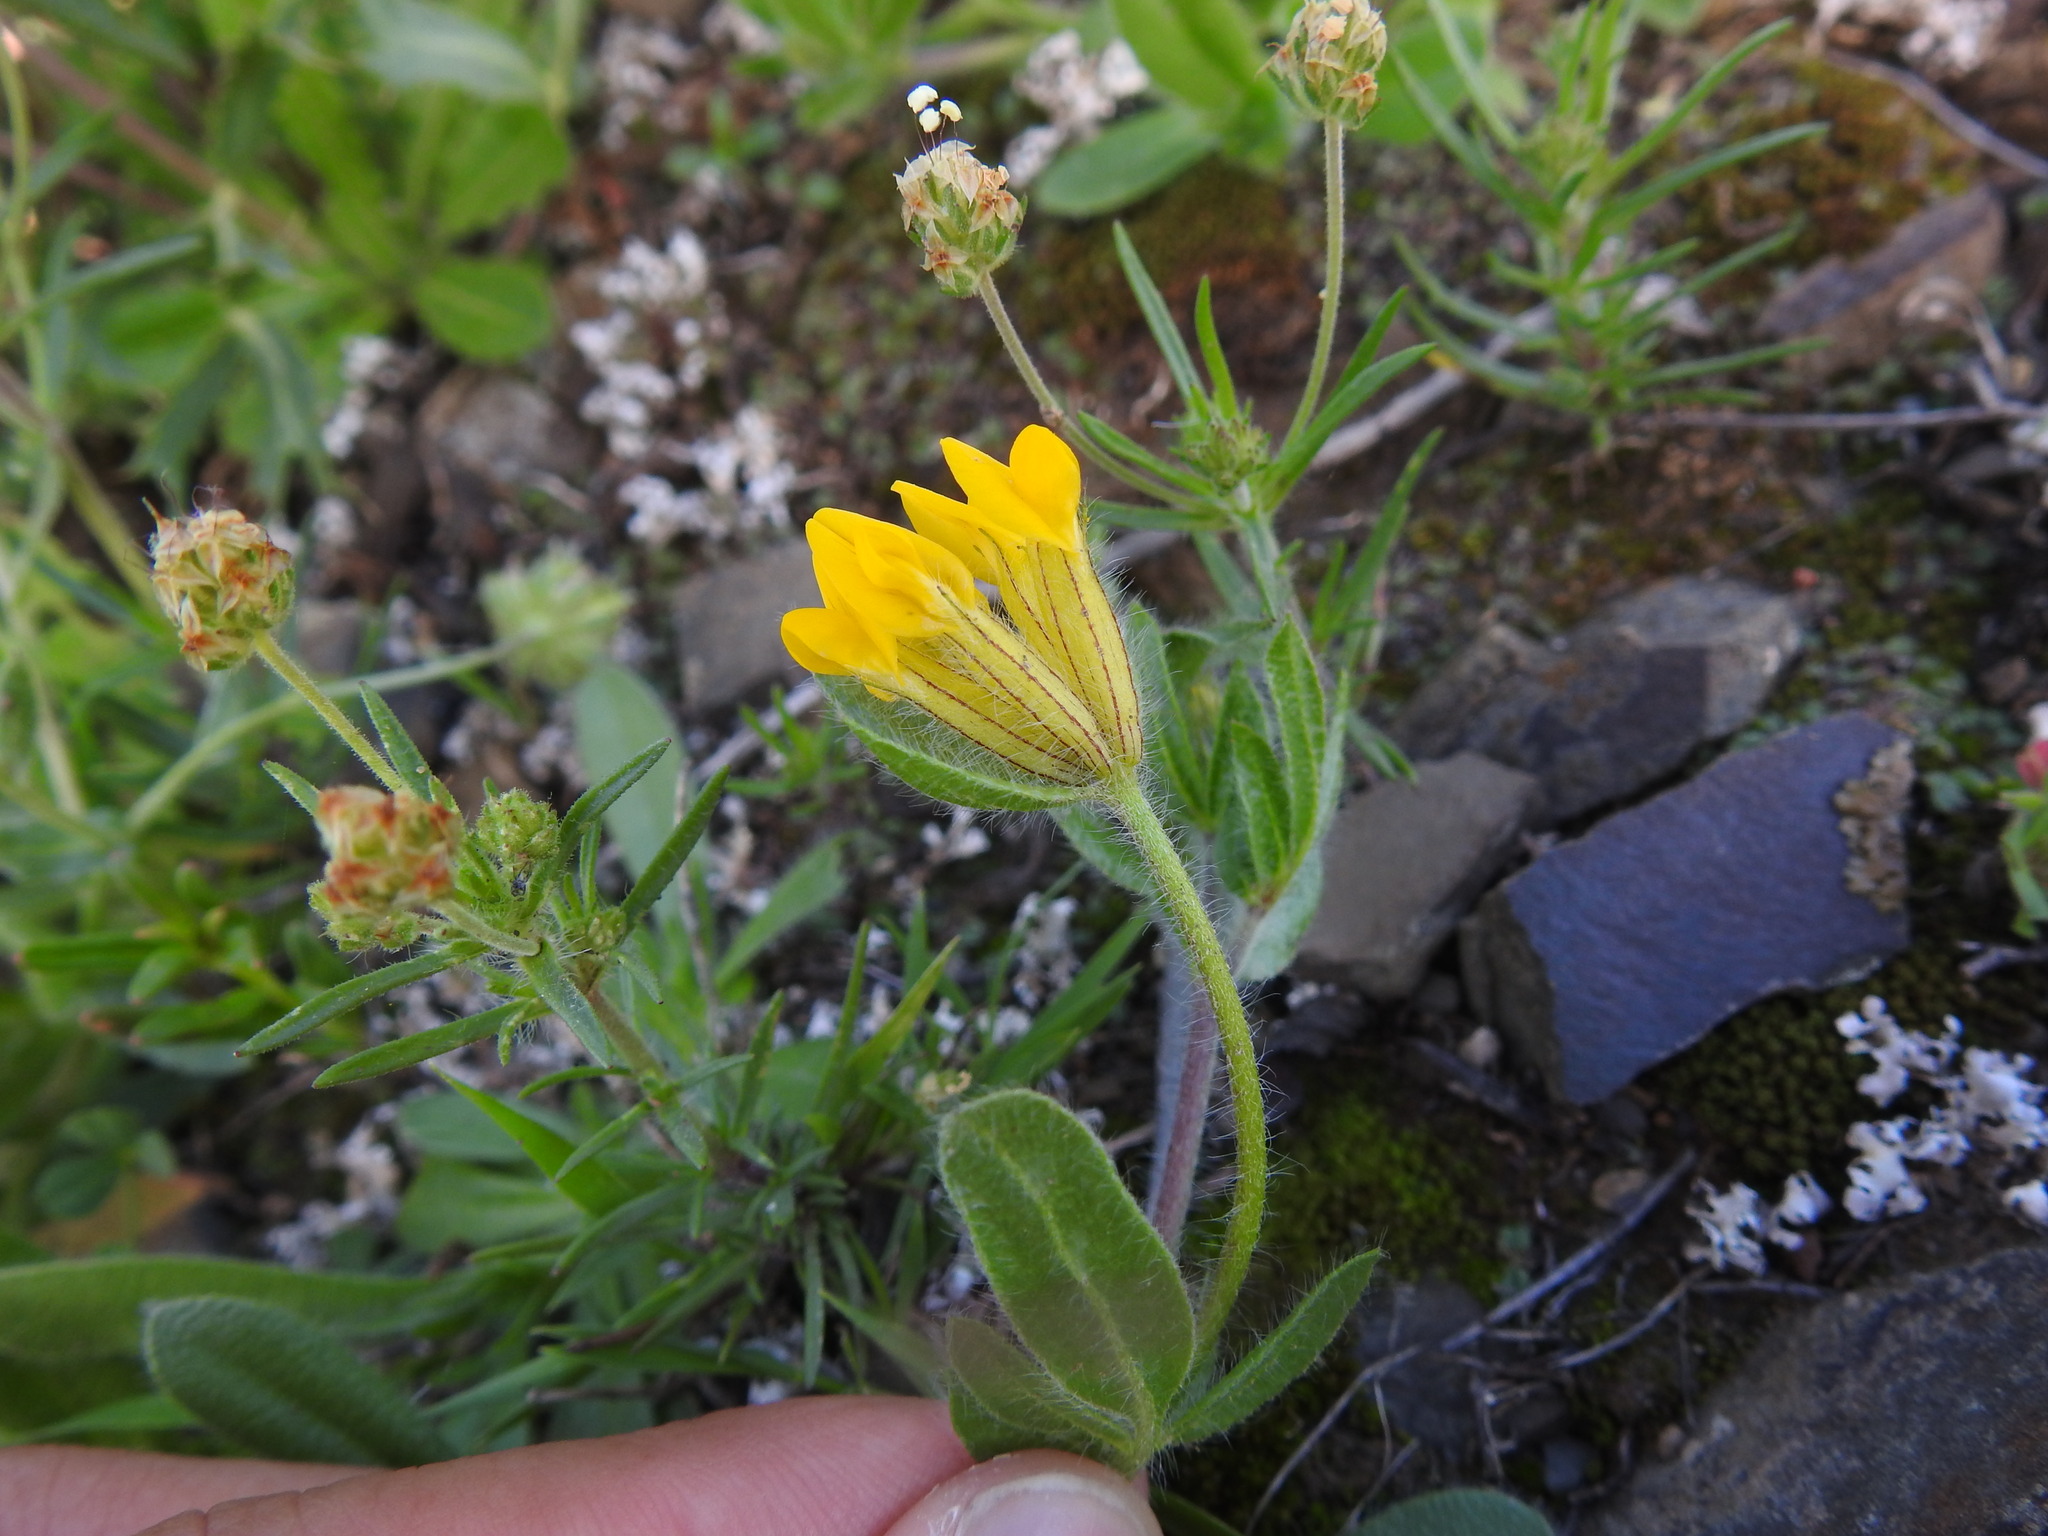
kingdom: Plantae
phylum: Tracheophyta
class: Magnoliopsida
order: Fabales
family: Fabaceae
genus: Anthyllis
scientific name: Anthyllis lotoides
